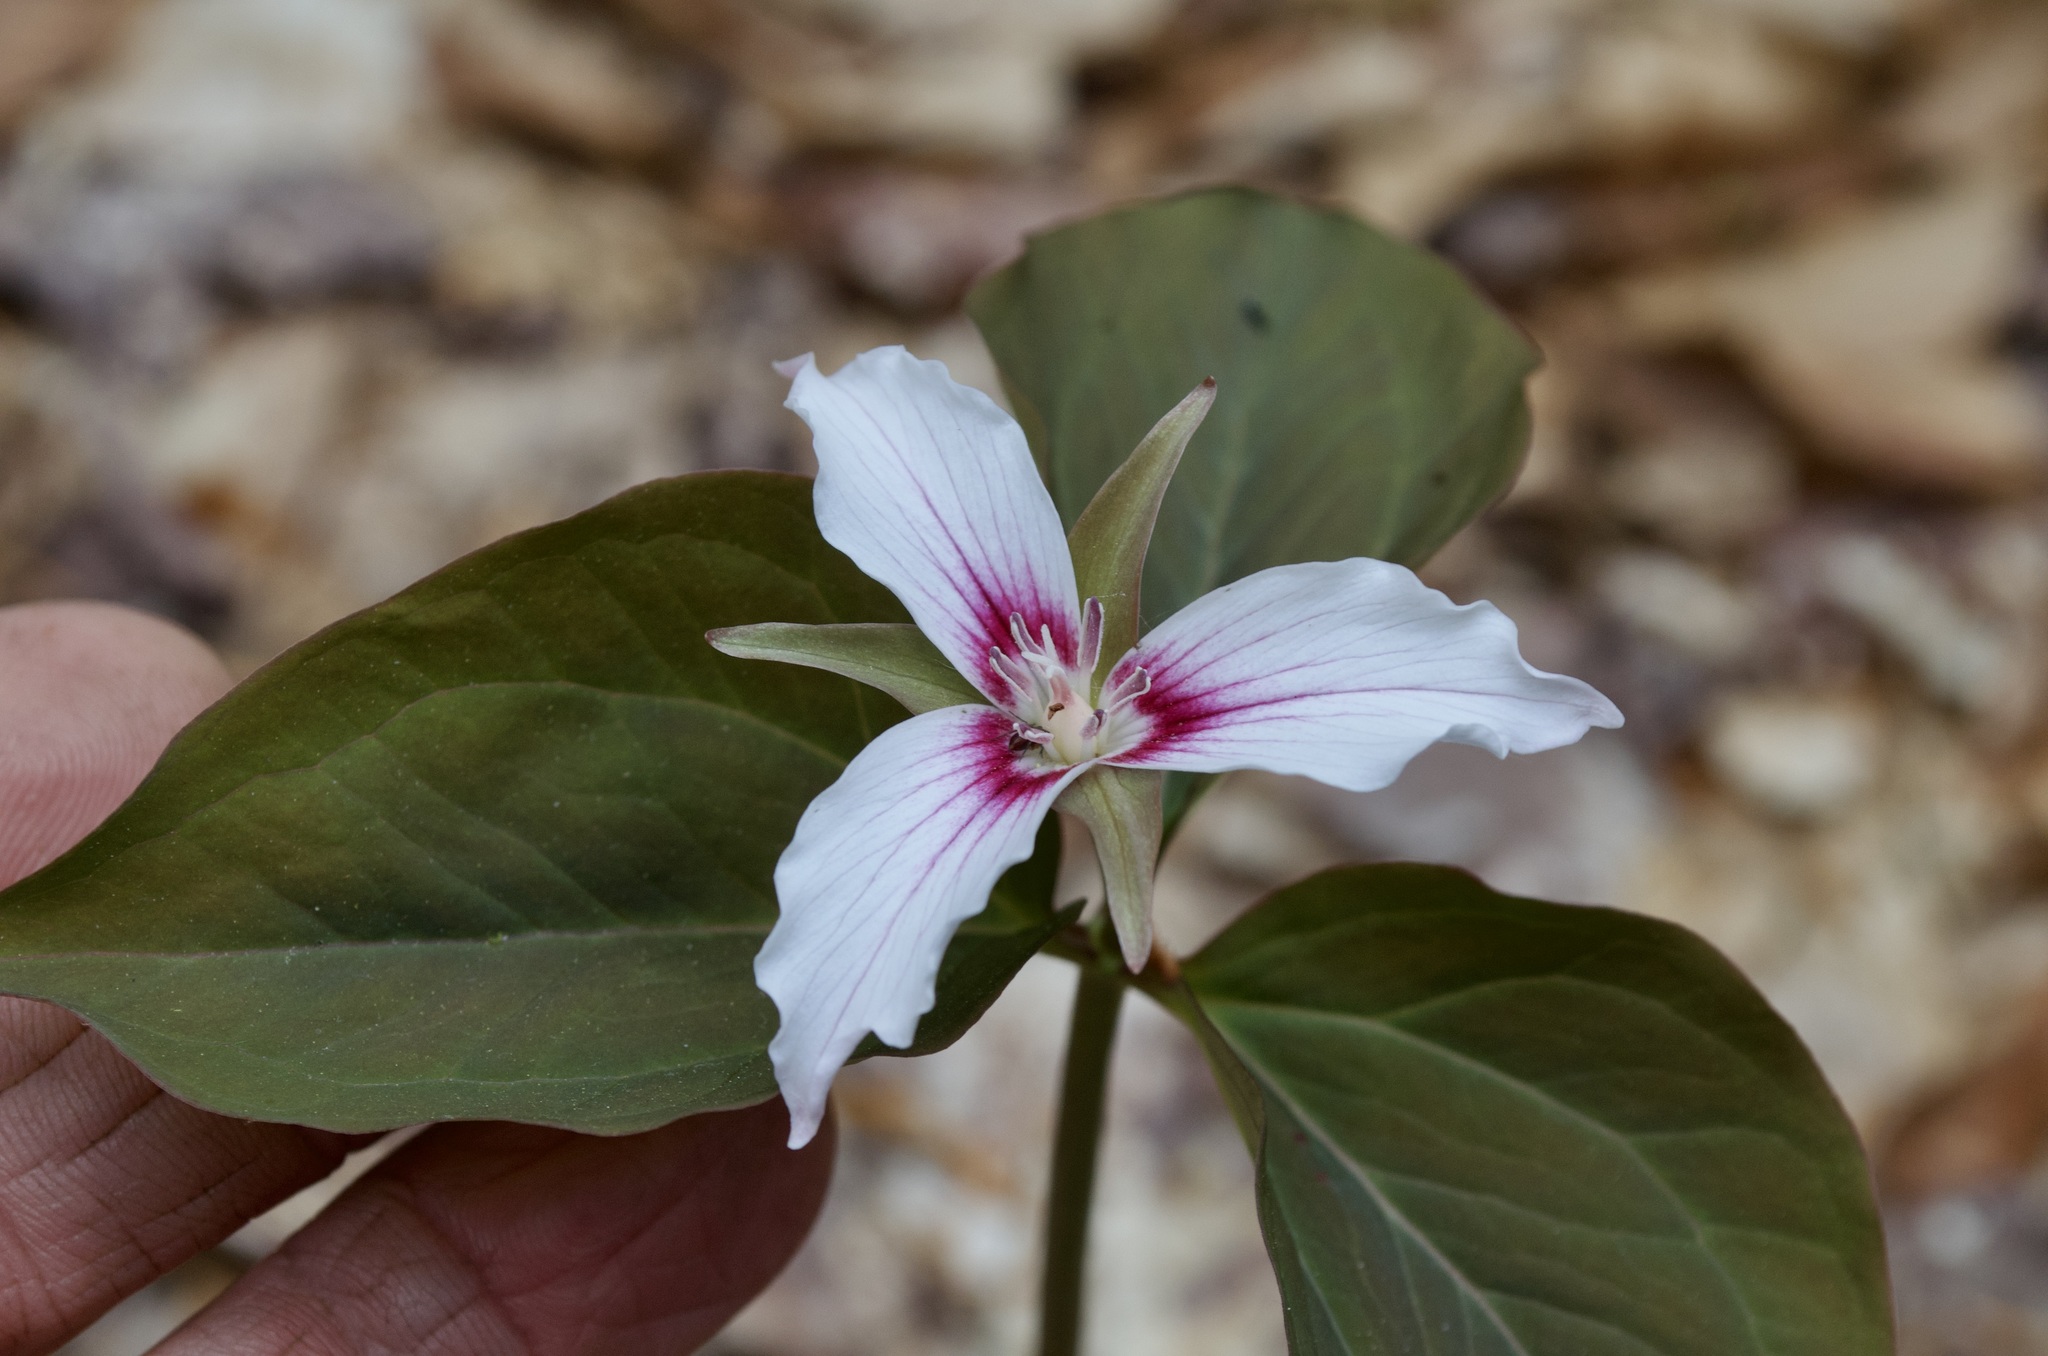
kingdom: Plantae
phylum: Tracheophyta
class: Liliopsida
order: Liliales
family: Melanthiaceae
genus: Trillium
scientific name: Trillium undulatum
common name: Paint trillium
